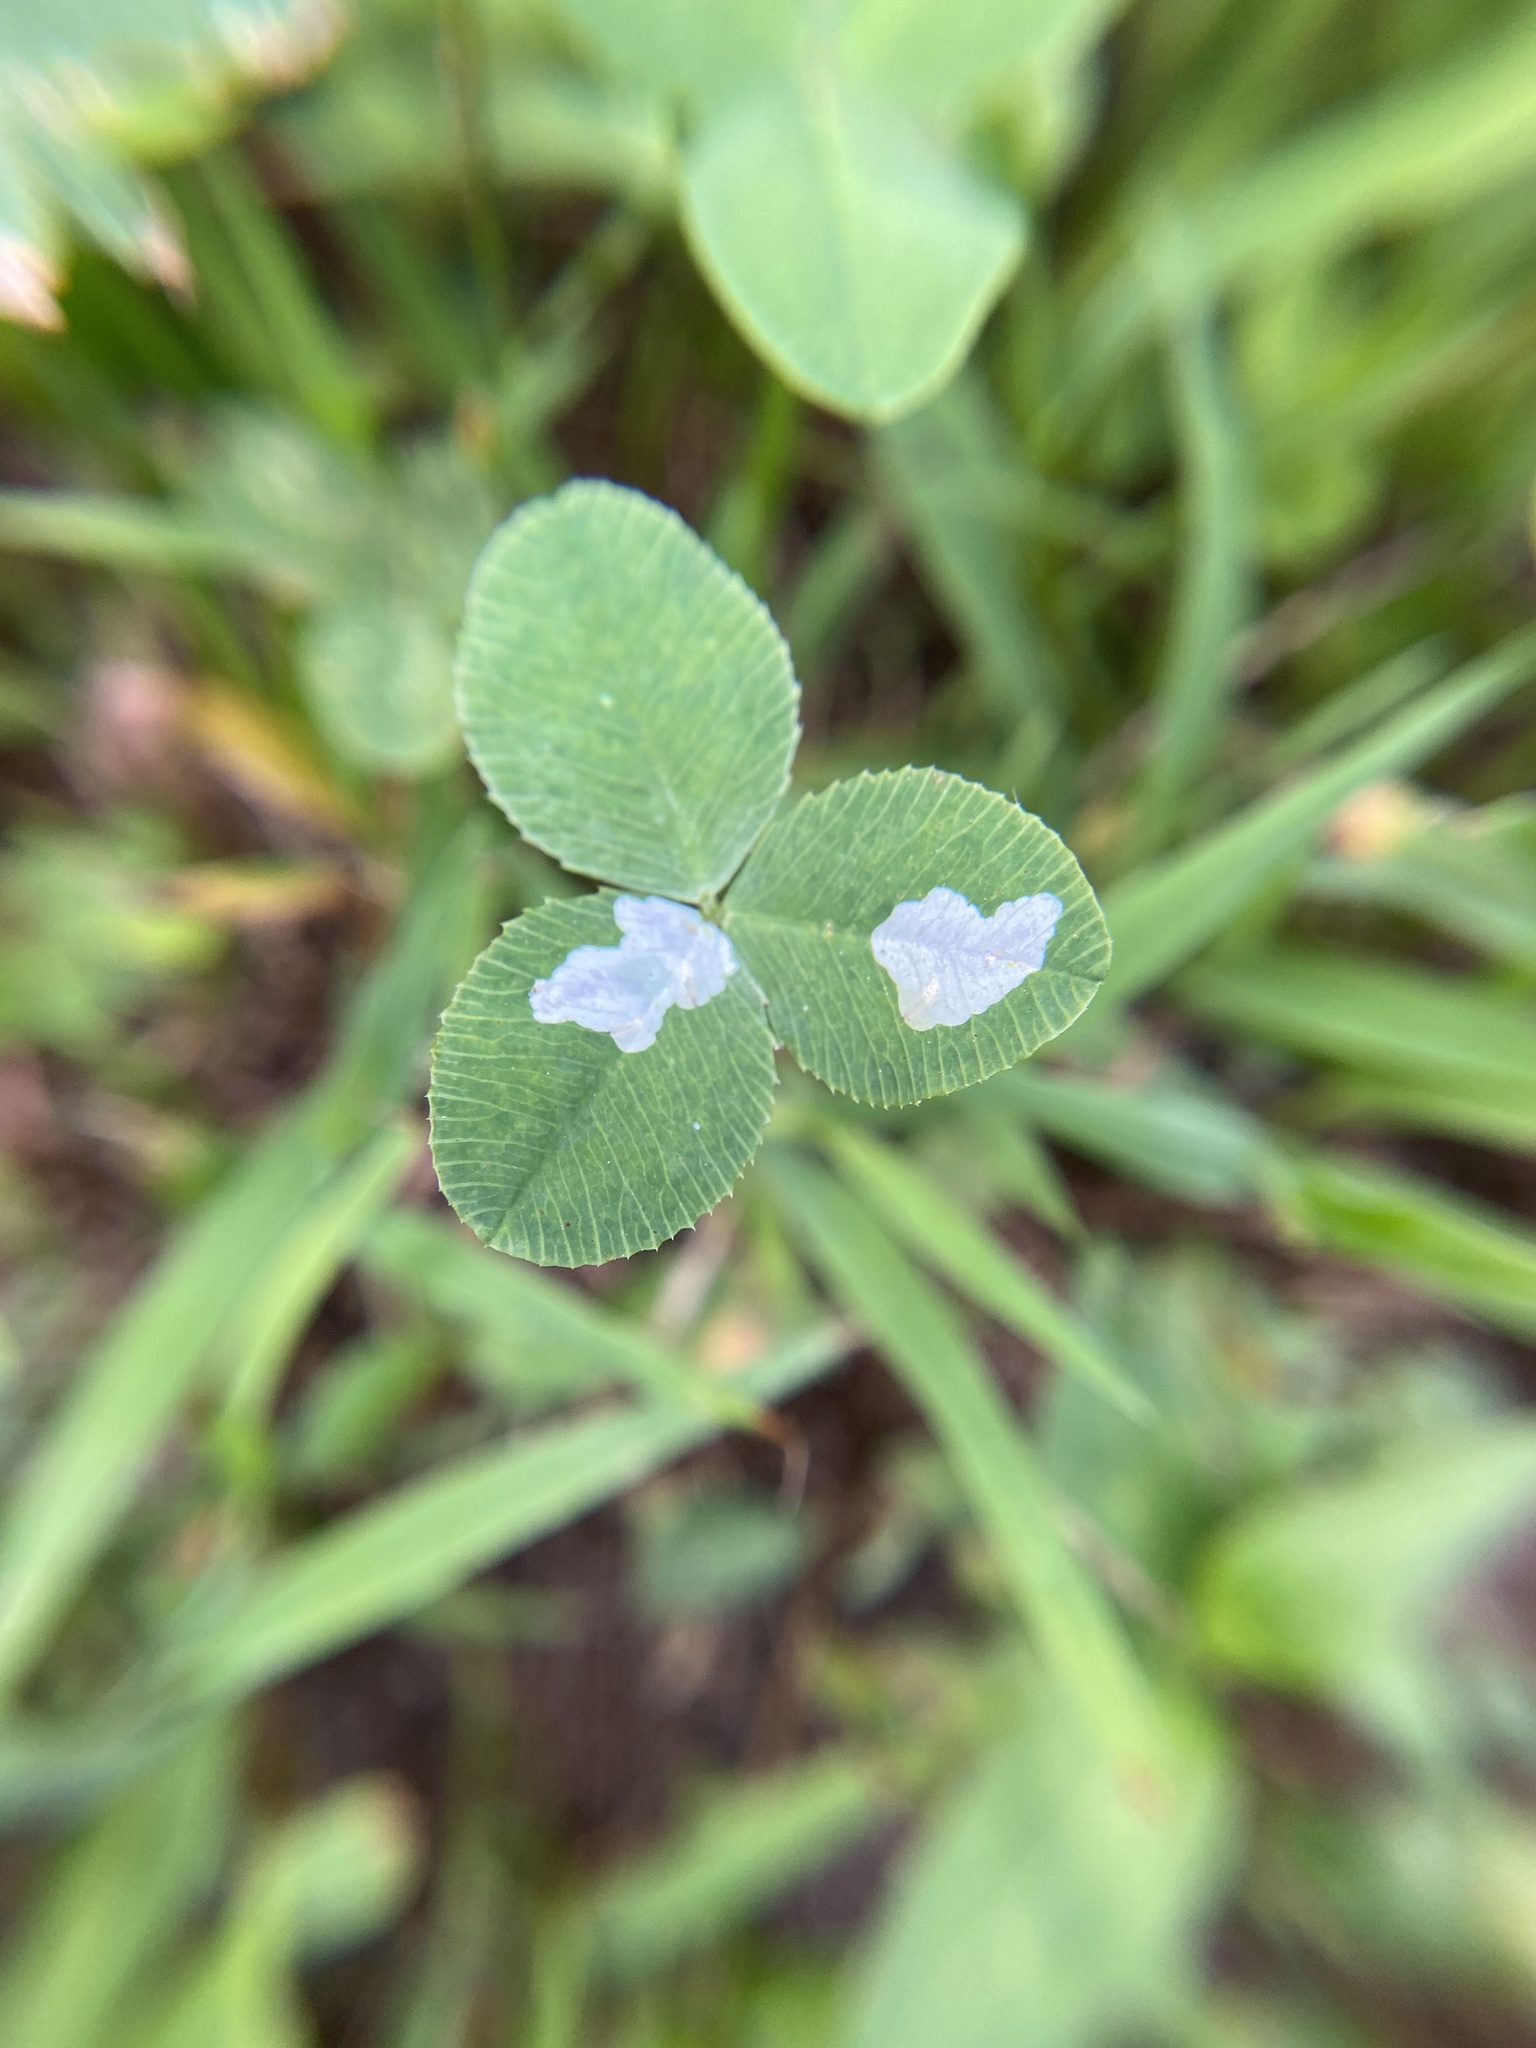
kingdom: Animalia
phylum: Arthropoda
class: Insecta
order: Lepidoptera
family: Gracillariidae
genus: Porphyrosela
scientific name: Porphyrosela minuta
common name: Leaf miner moth
